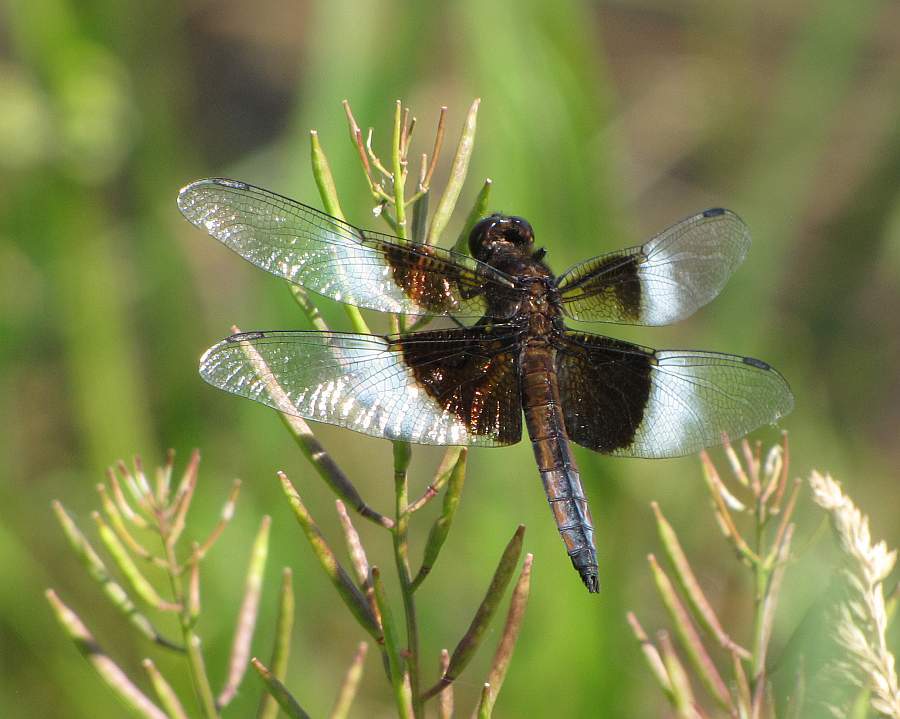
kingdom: Animalia
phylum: Arthropoda
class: Insecta
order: Odonata
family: Libellulidae
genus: Libellula
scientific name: Libellula luctuosa
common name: Widow skimmer
